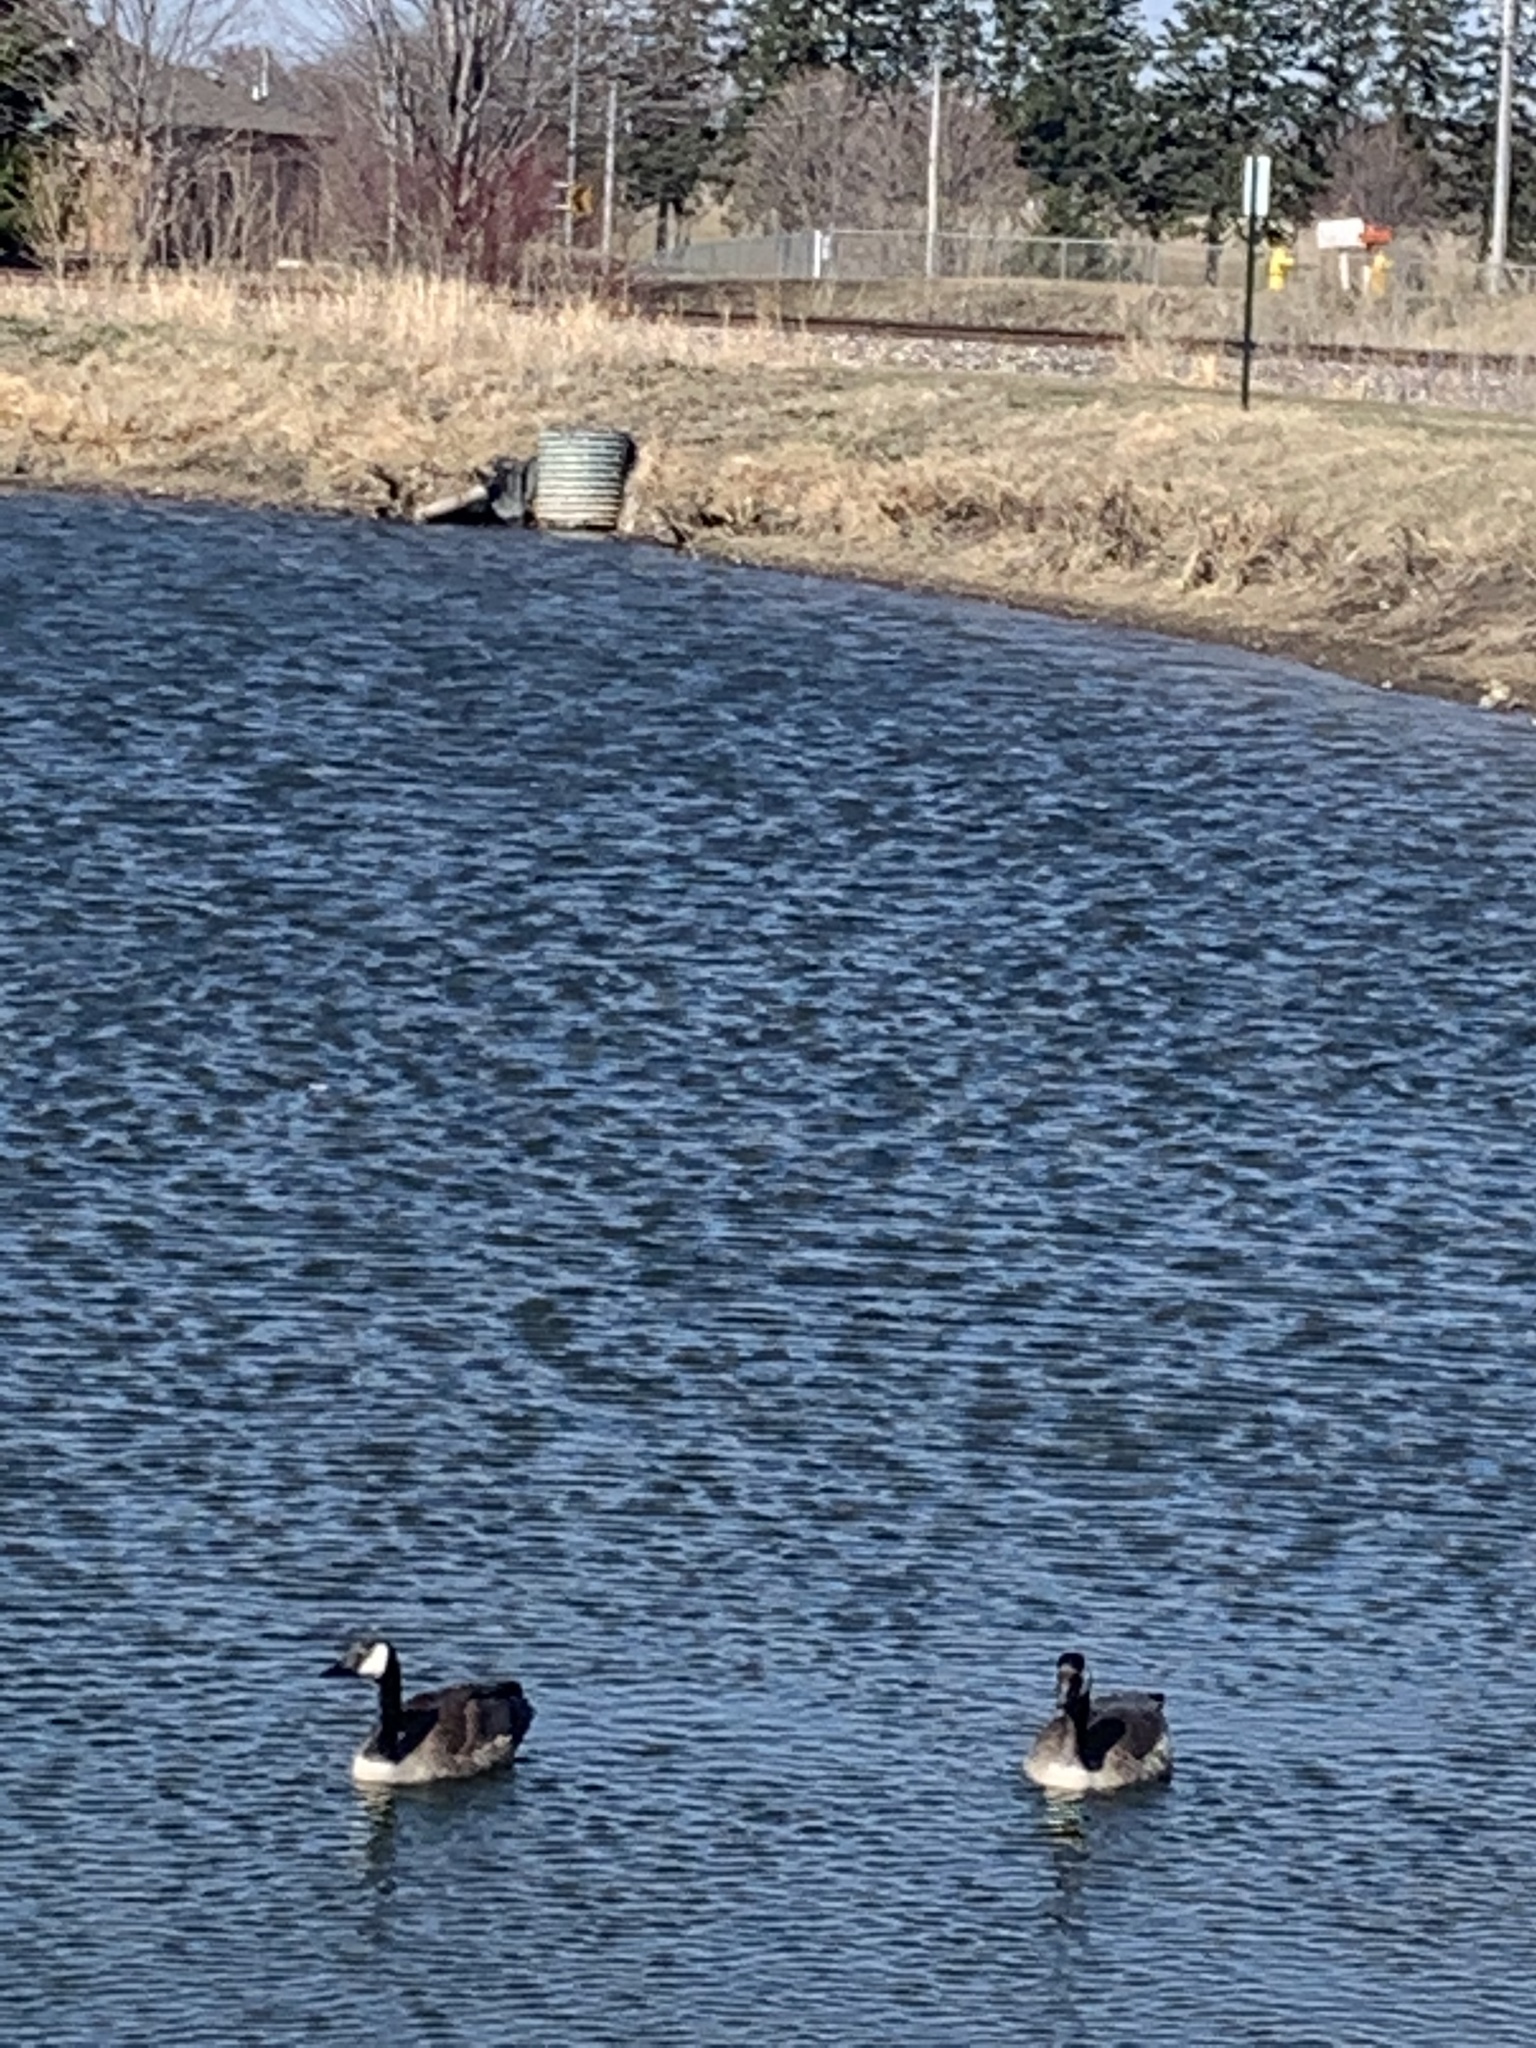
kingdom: Animalia
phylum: Chordata
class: Aves
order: Anseriformes
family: Anatidae
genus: Branta
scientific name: Branta canadensis
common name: Canada goose
